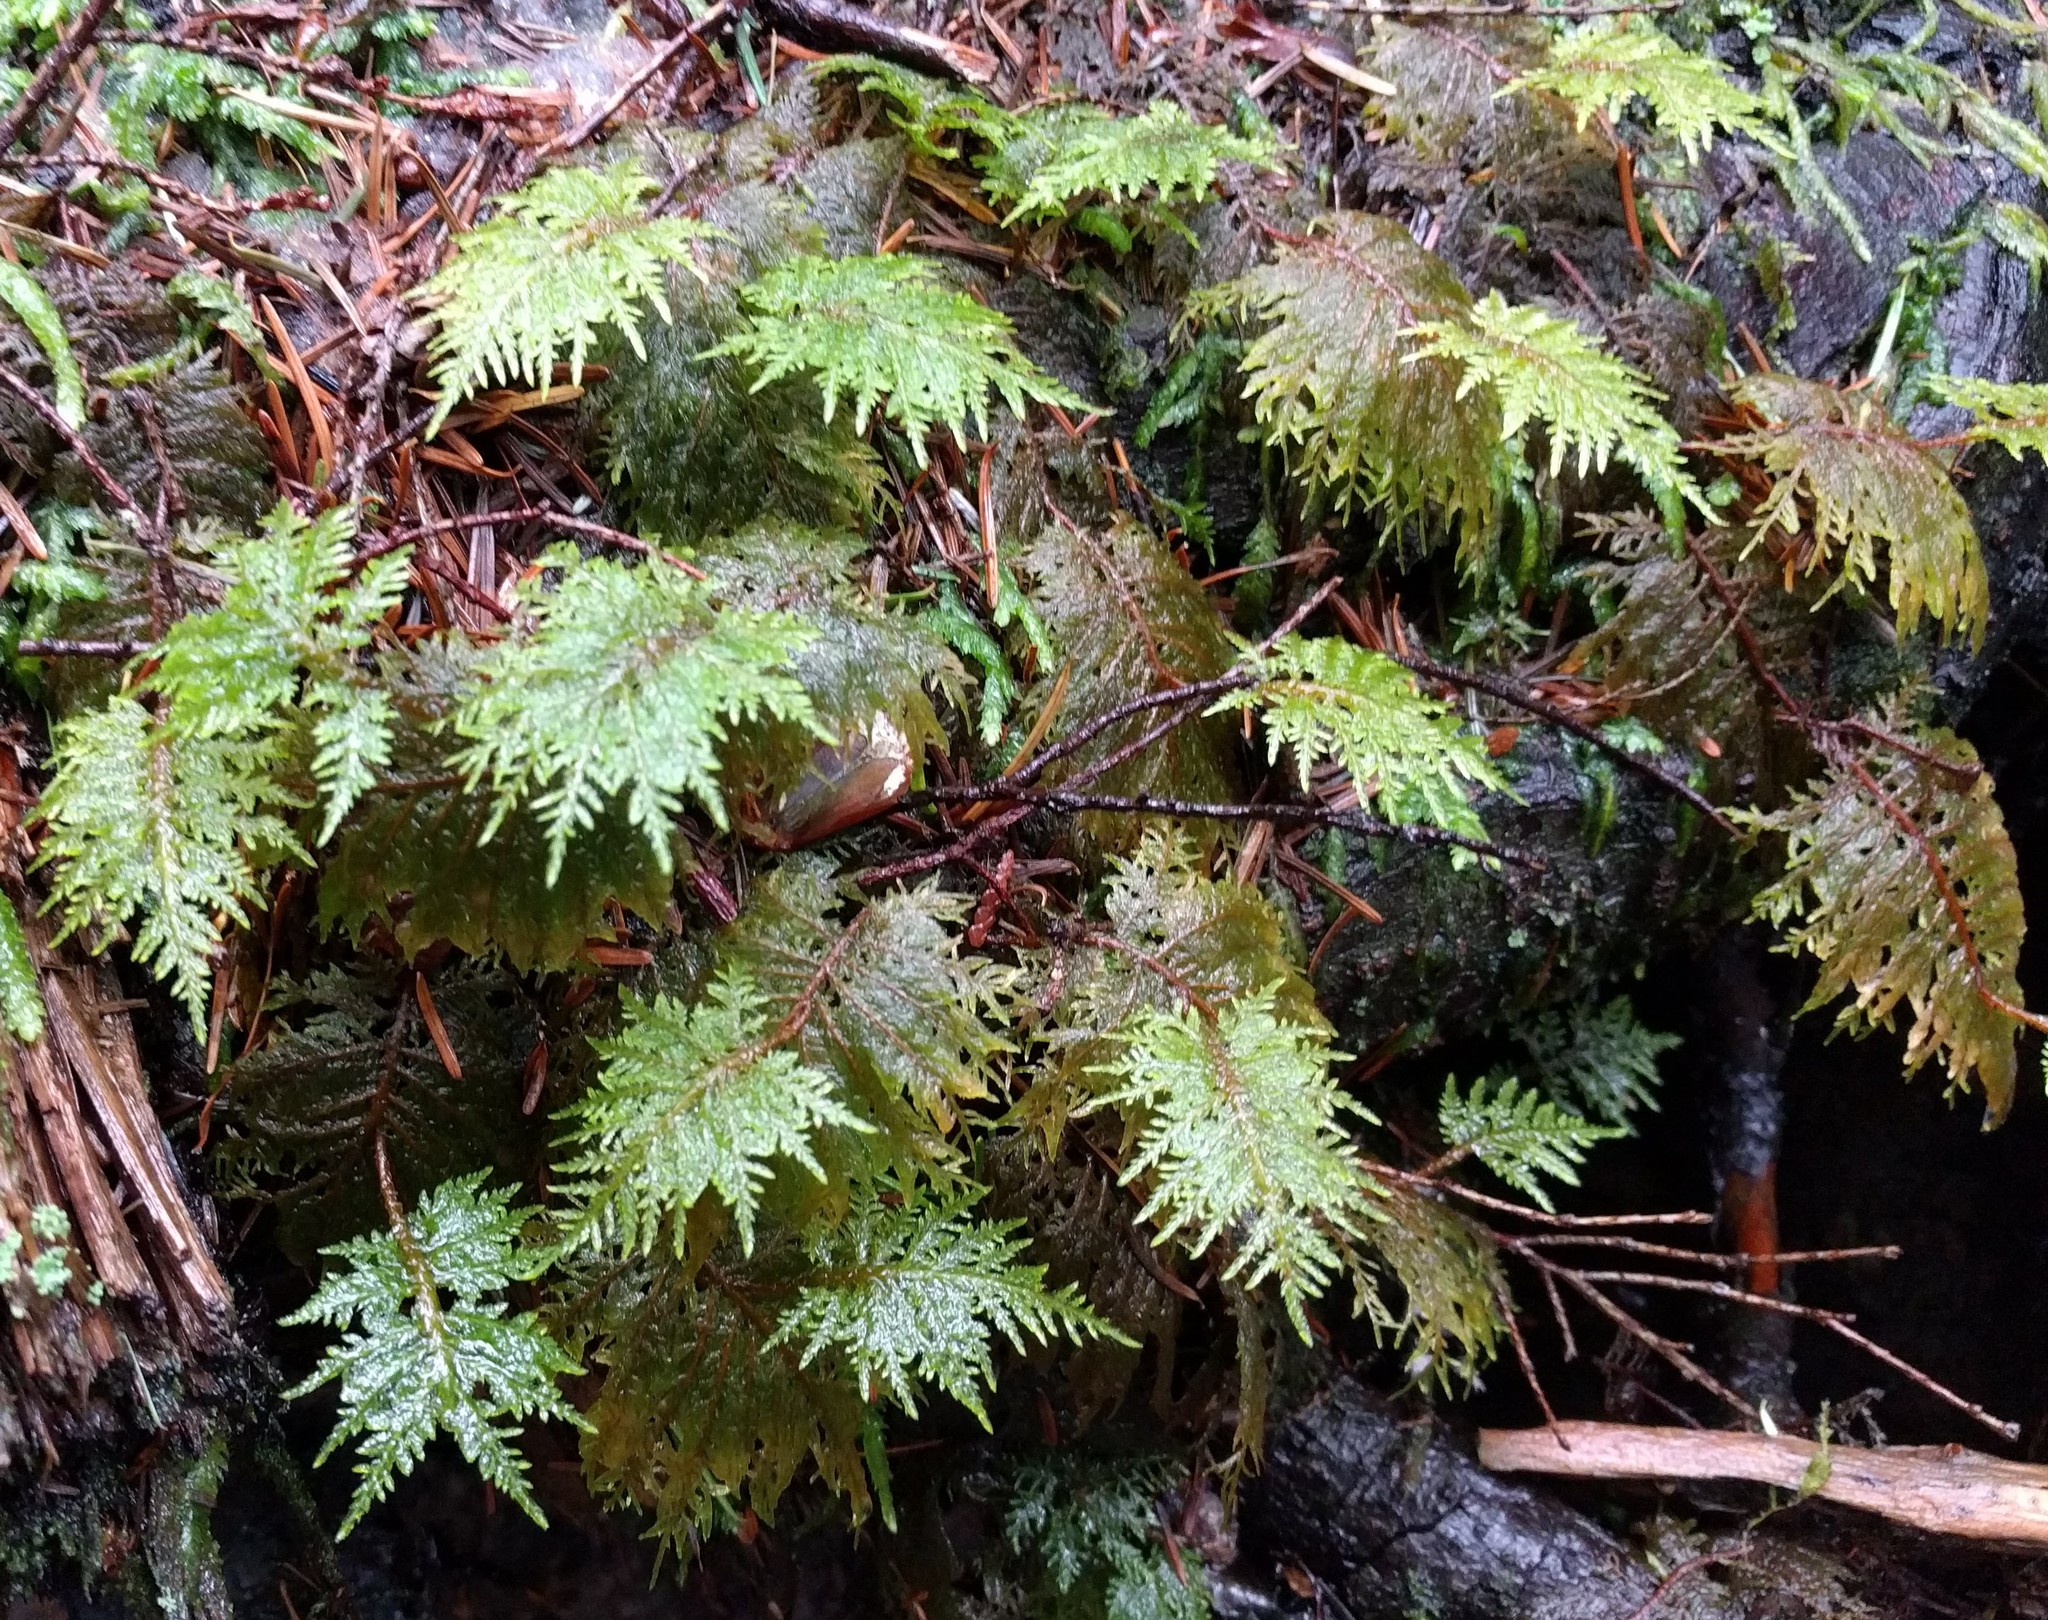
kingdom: Plantae
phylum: Bryophyta
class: Bryopsida
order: Hypnales
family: Hylocomiaceae
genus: Hylocomium
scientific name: Hylocomium splendens
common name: Stairstep moss
